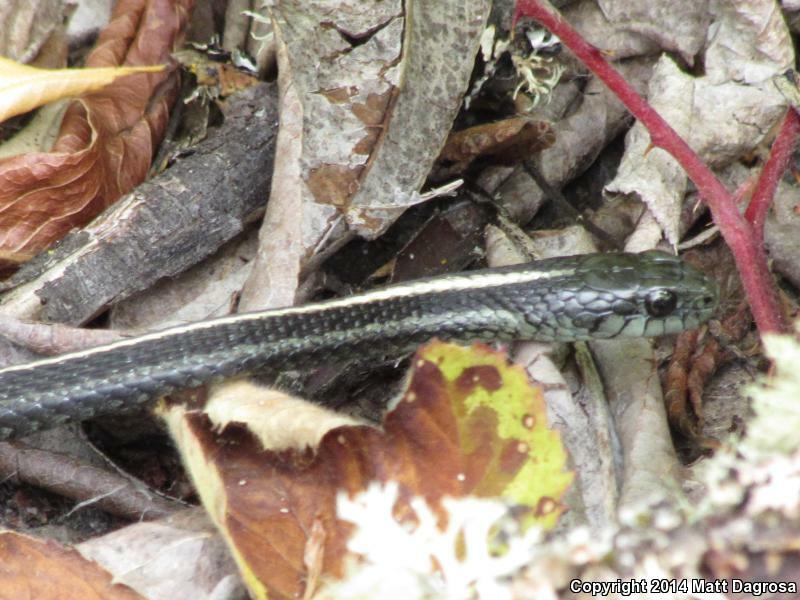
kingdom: Animalia
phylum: Chordata
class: Squamata
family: Colubridae
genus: Thamnophis
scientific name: Thamnophis ordinoides
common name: Northwestern garter snake
